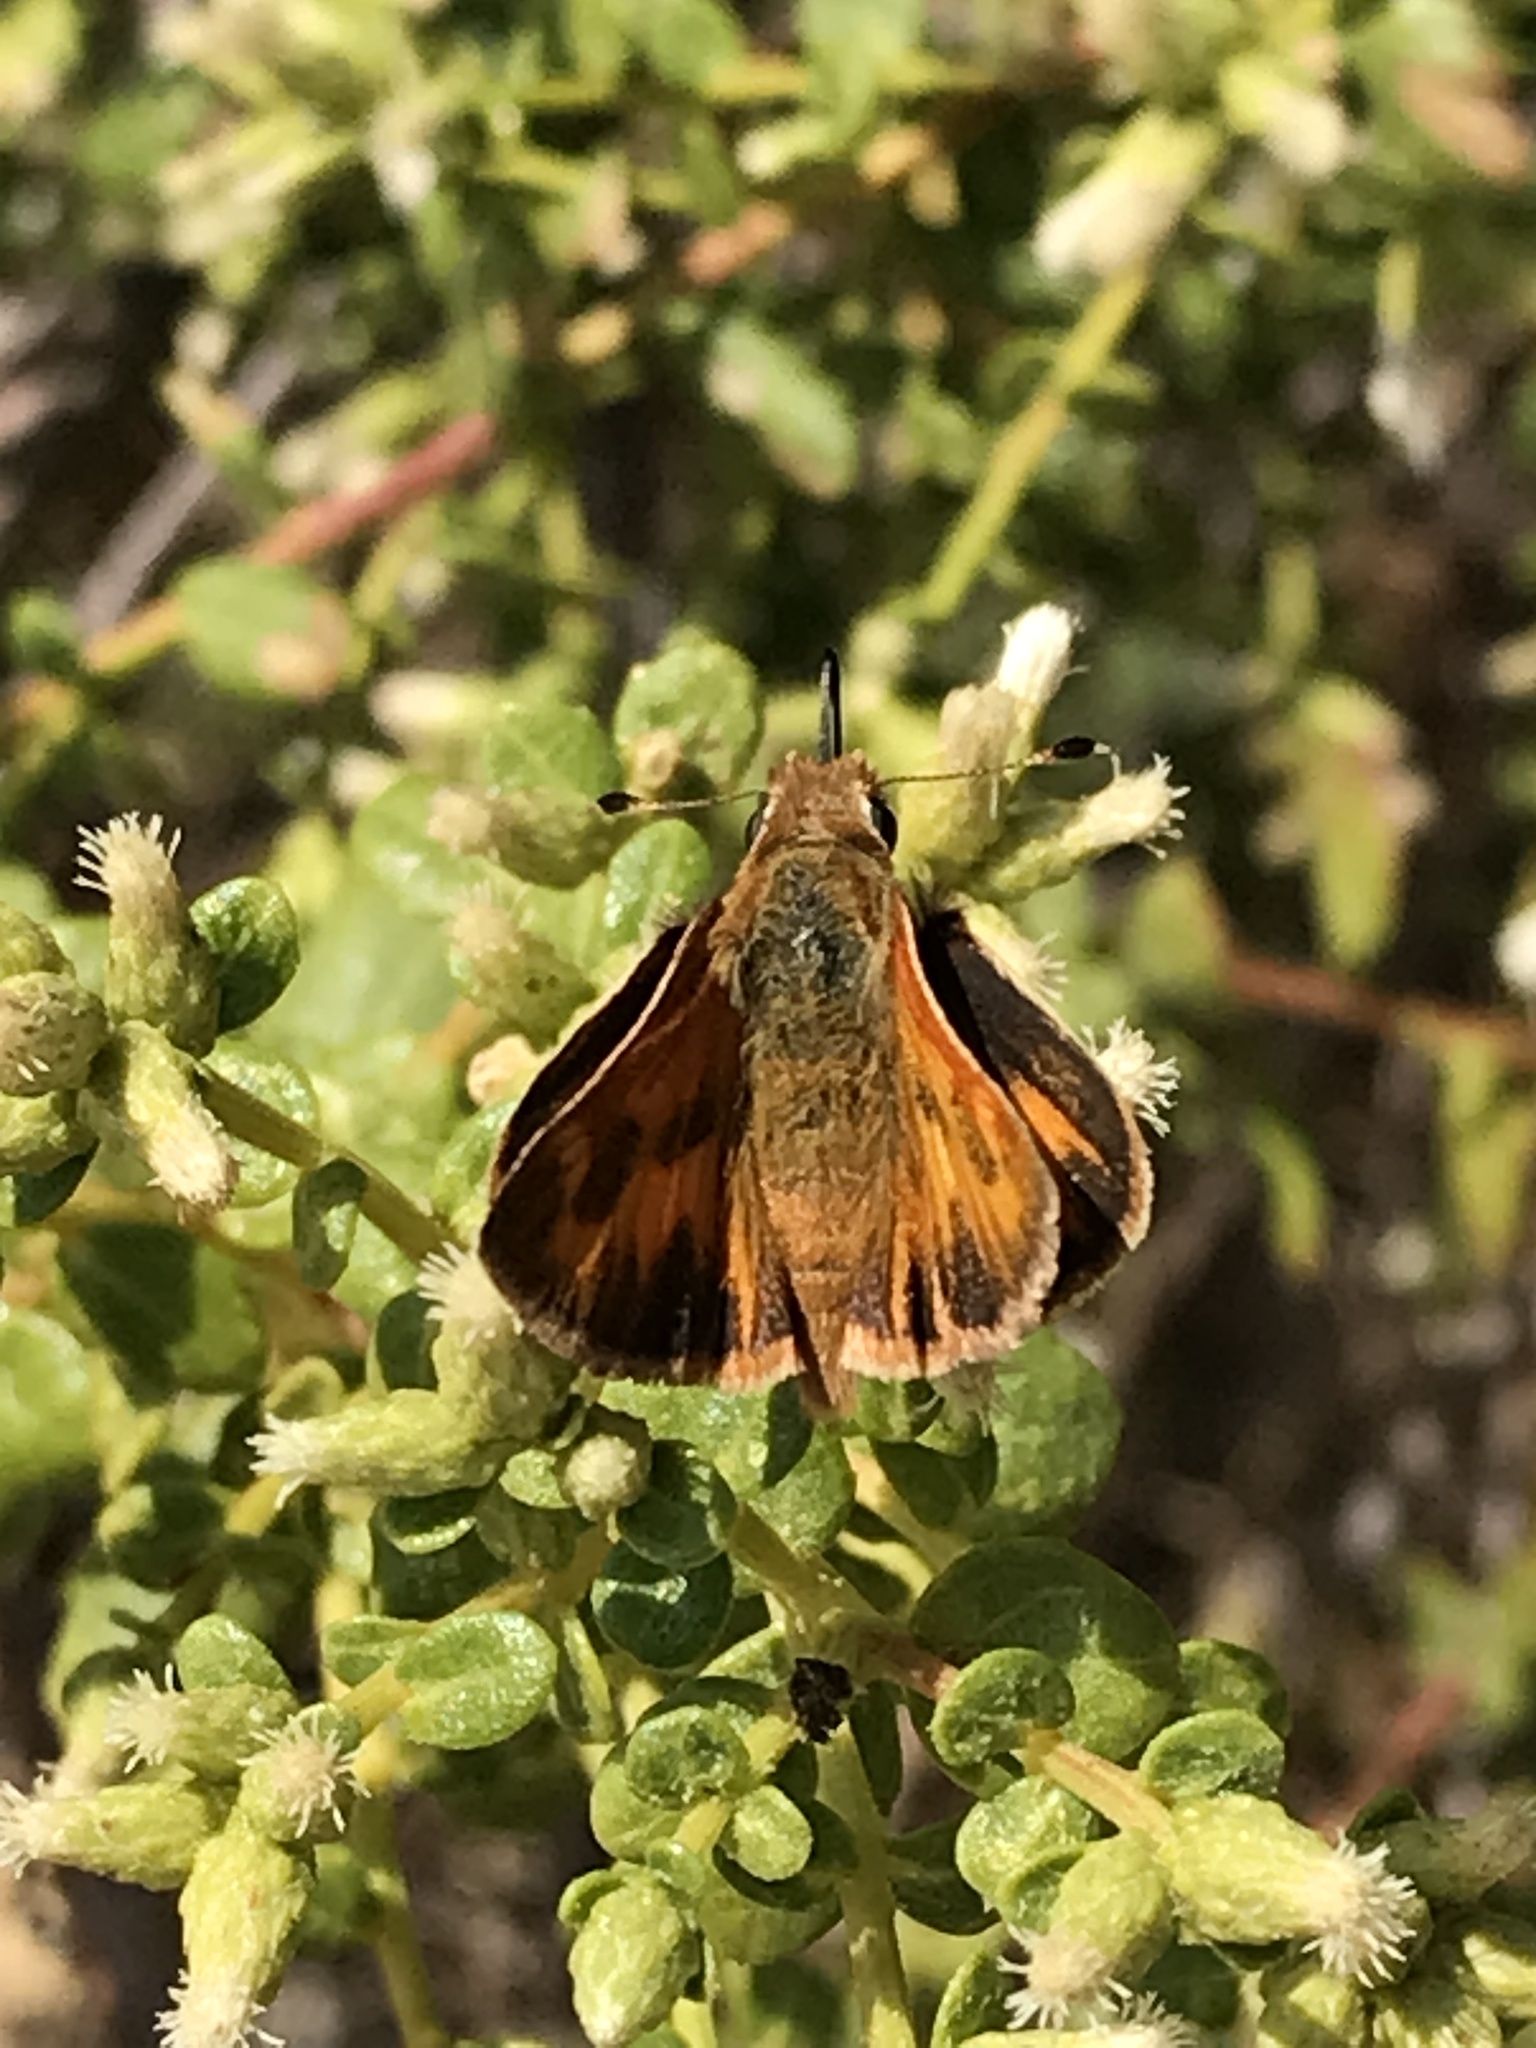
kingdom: Animalia
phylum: Arthropoda
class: Insecta
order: Lepidoptera
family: Hesperiidae
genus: Ochlodes
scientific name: Ochlodes sylvanoides
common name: Woodland skipper
